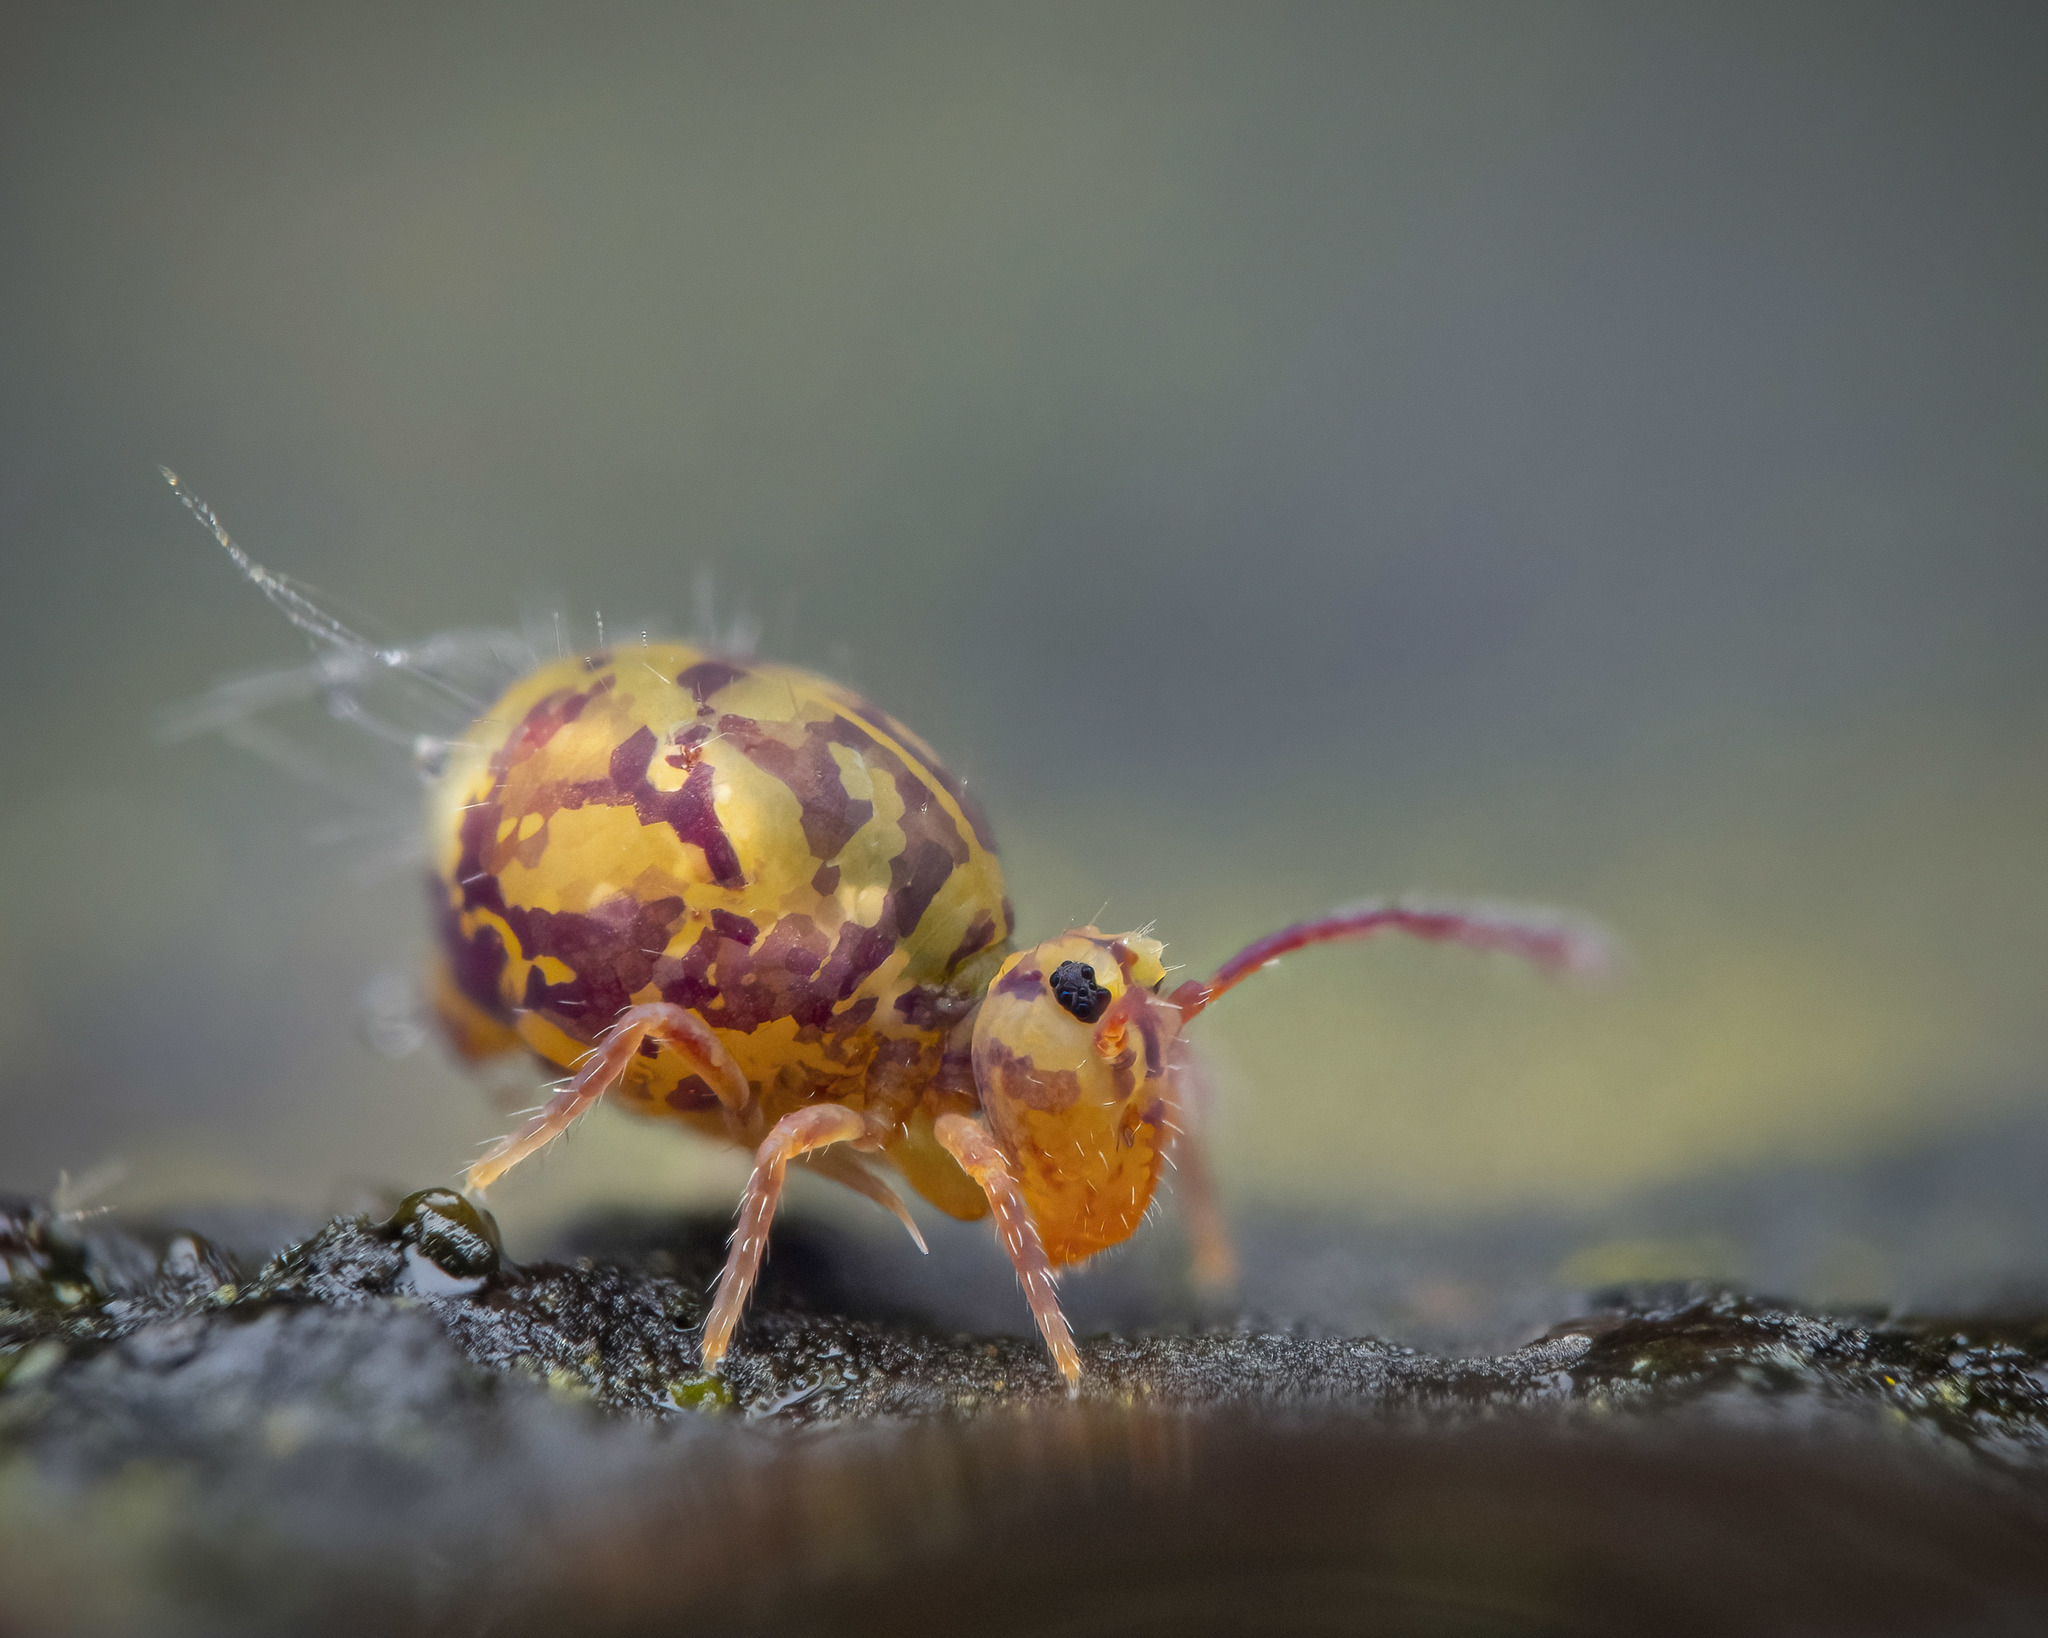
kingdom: Animalia
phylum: Arthropoda
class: Collembola
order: Symphypleona
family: Dicyrtomidae
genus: Dicyrtomina
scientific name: Dicyrtomina ornata
